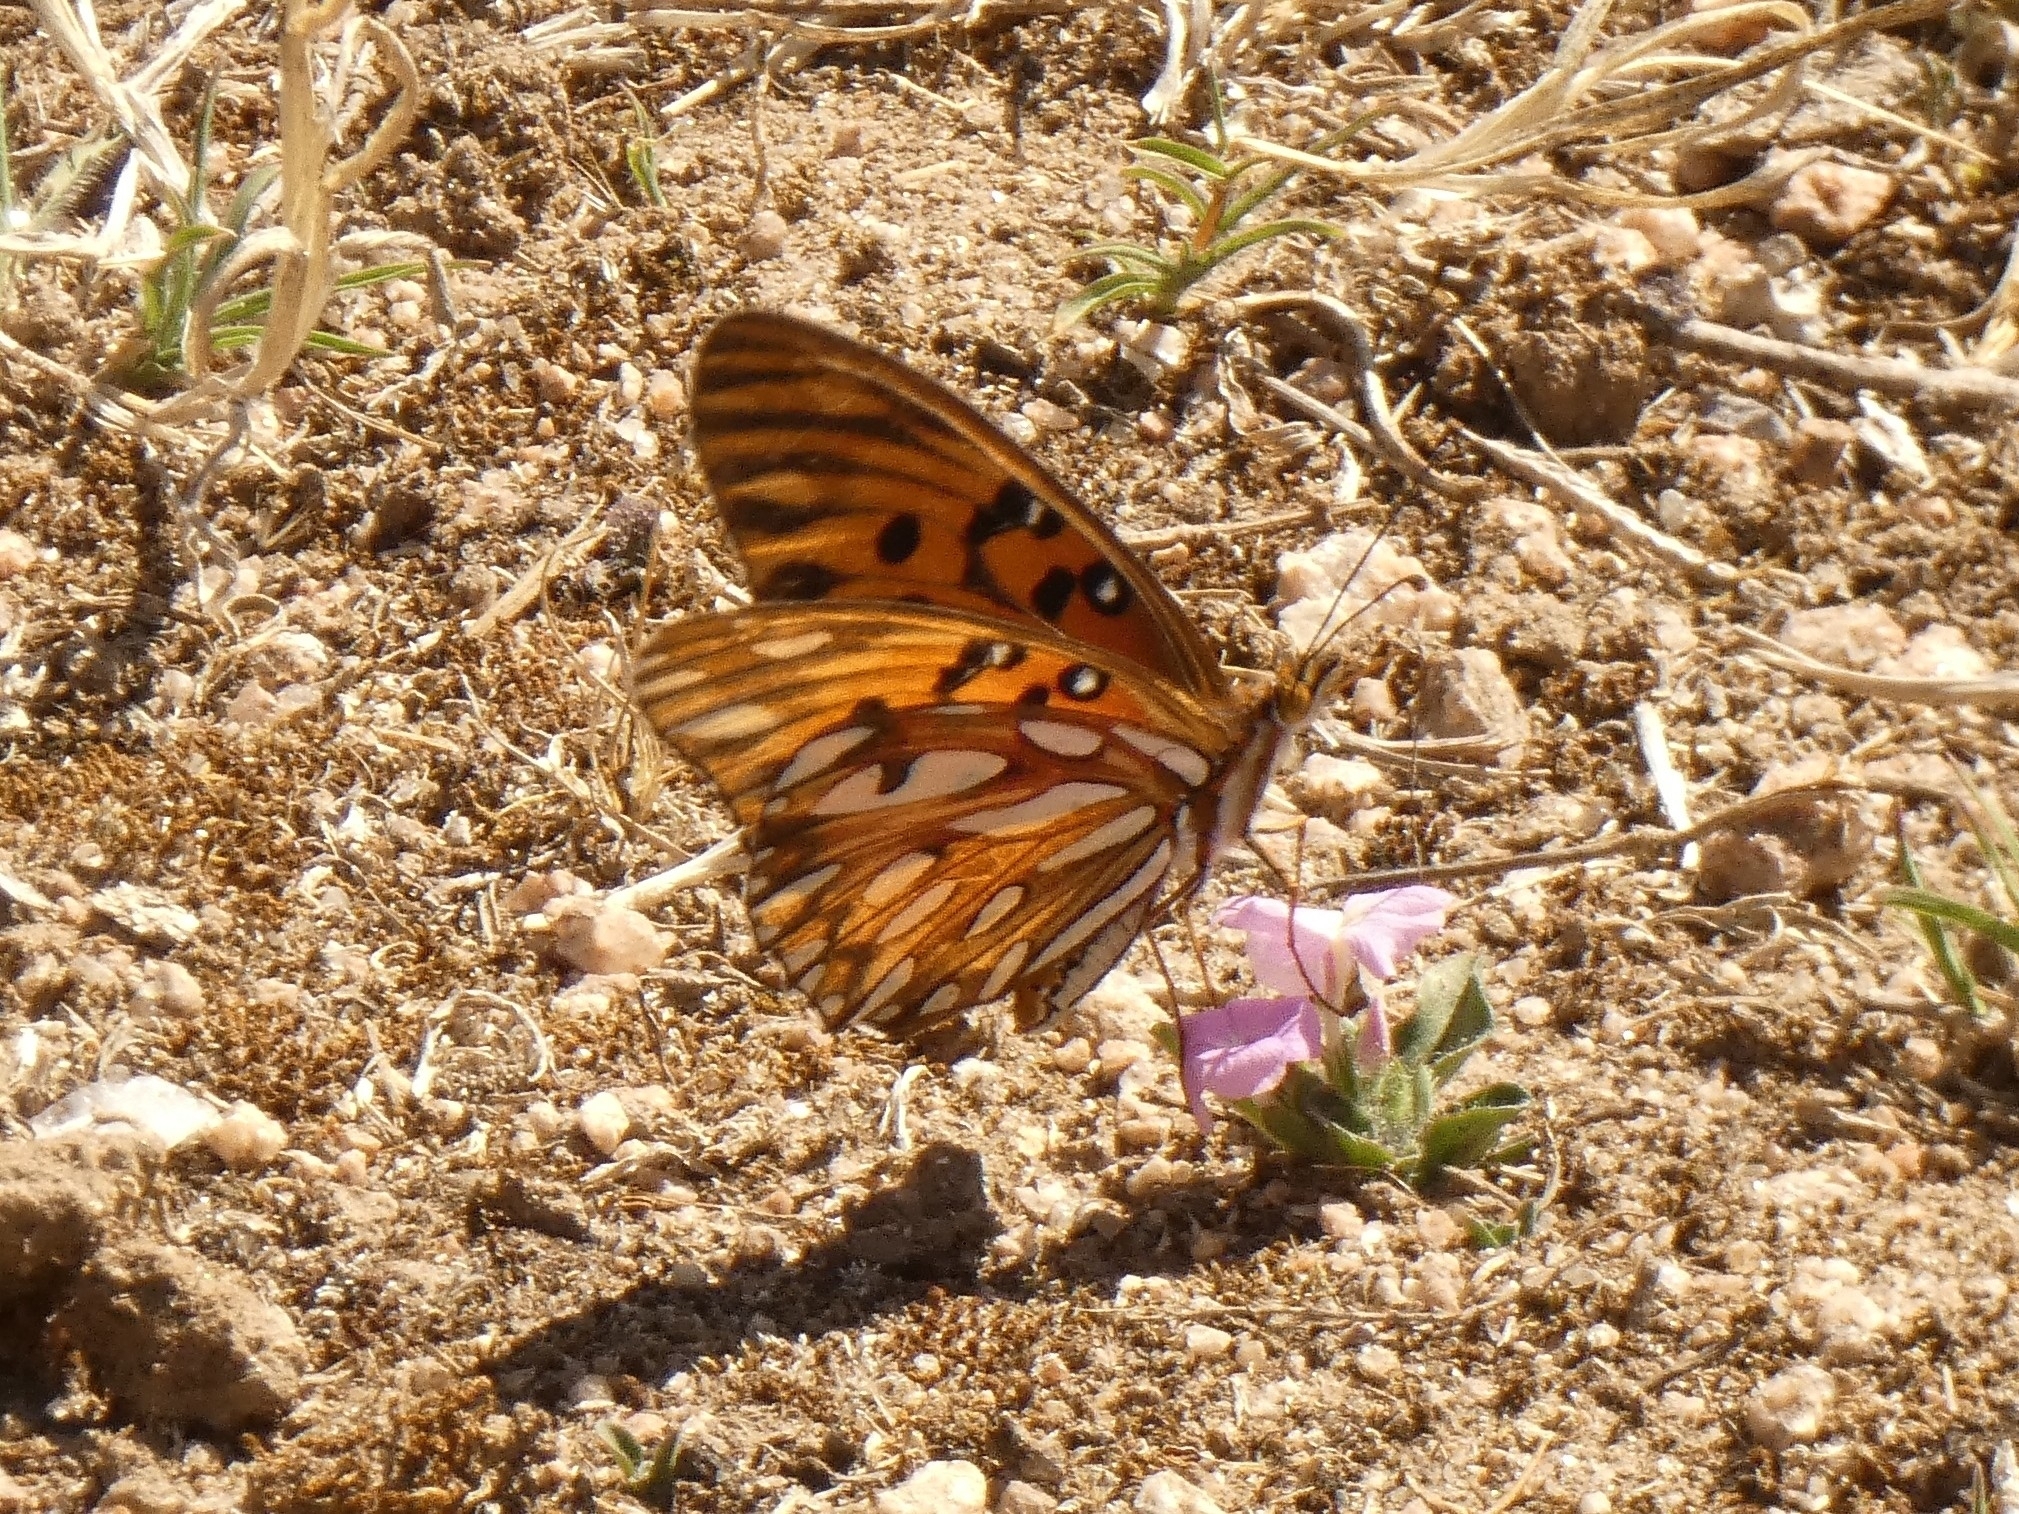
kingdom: Animalia
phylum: Arthropoda
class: Insecta
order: Lepidoptera
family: Nymphalidae
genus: Dione
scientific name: Dione vanillae
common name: Gulf fritillary
